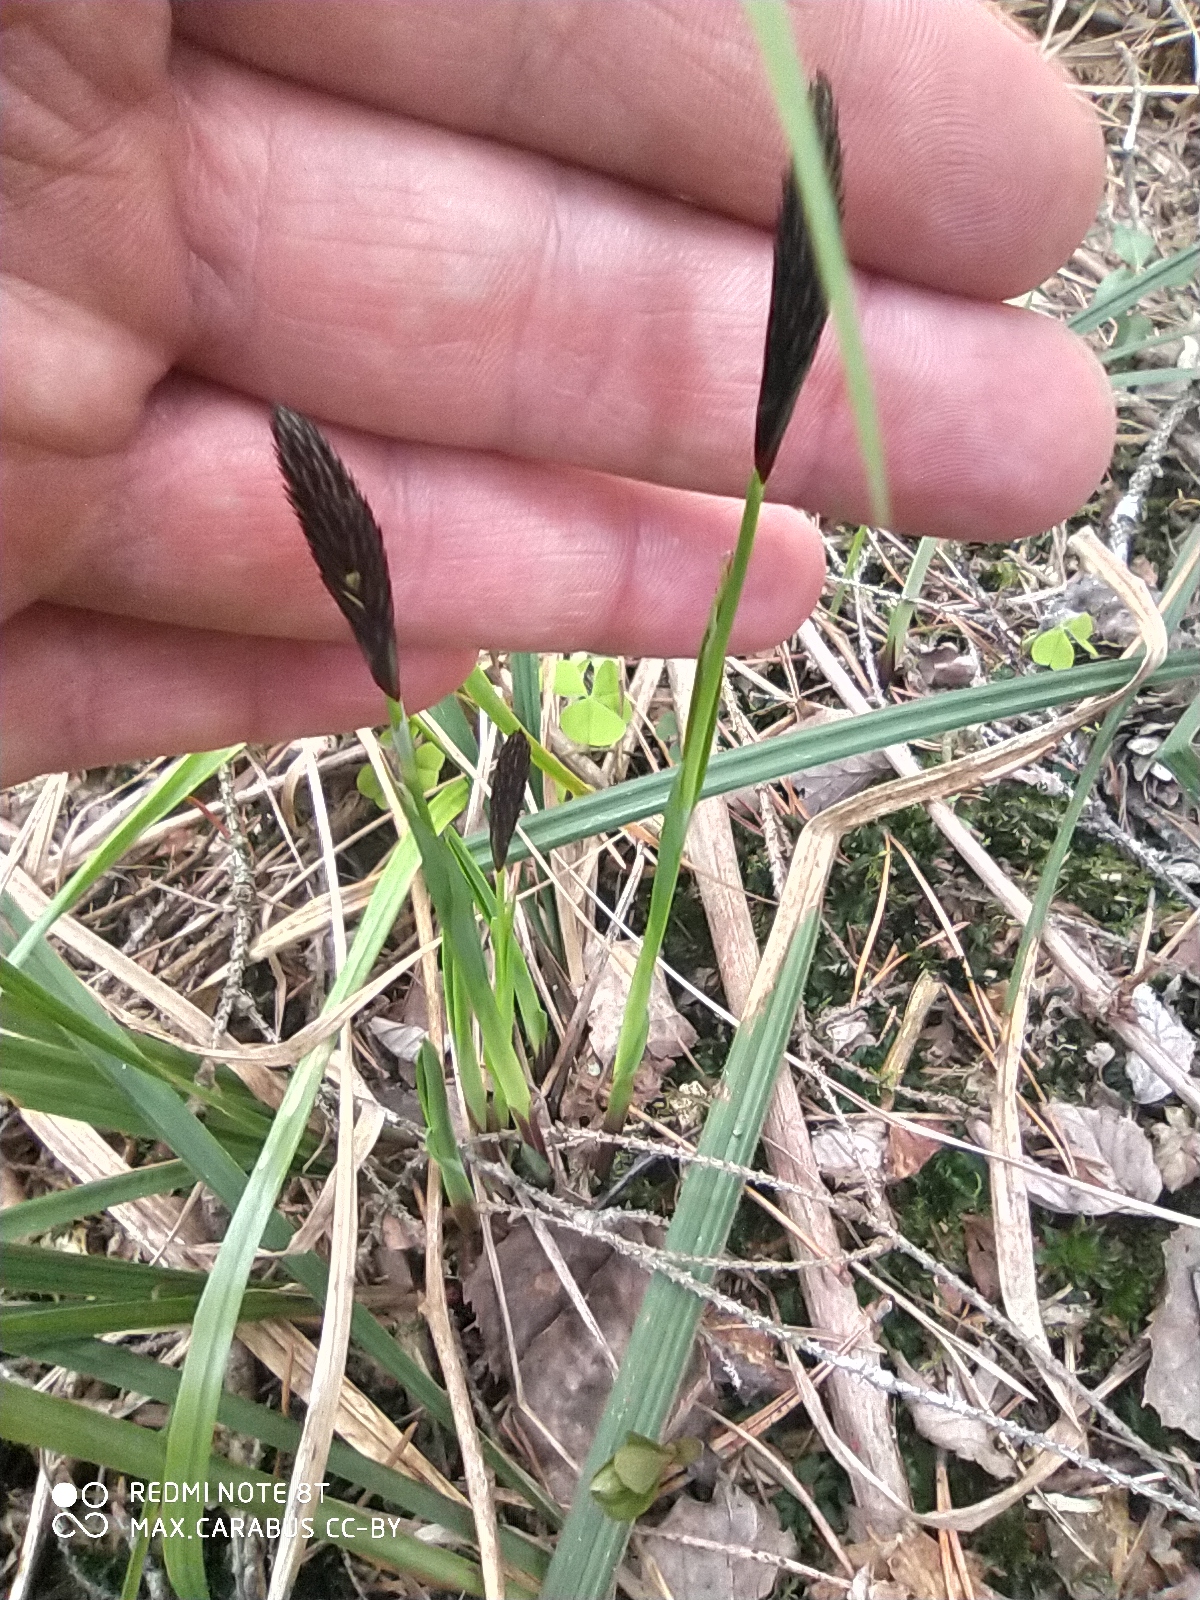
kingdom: Plantae
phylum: Tracheophyta
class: Liliopsida
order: Poales
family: Cyperaceae
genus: Carex
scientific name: Carex pilosa
